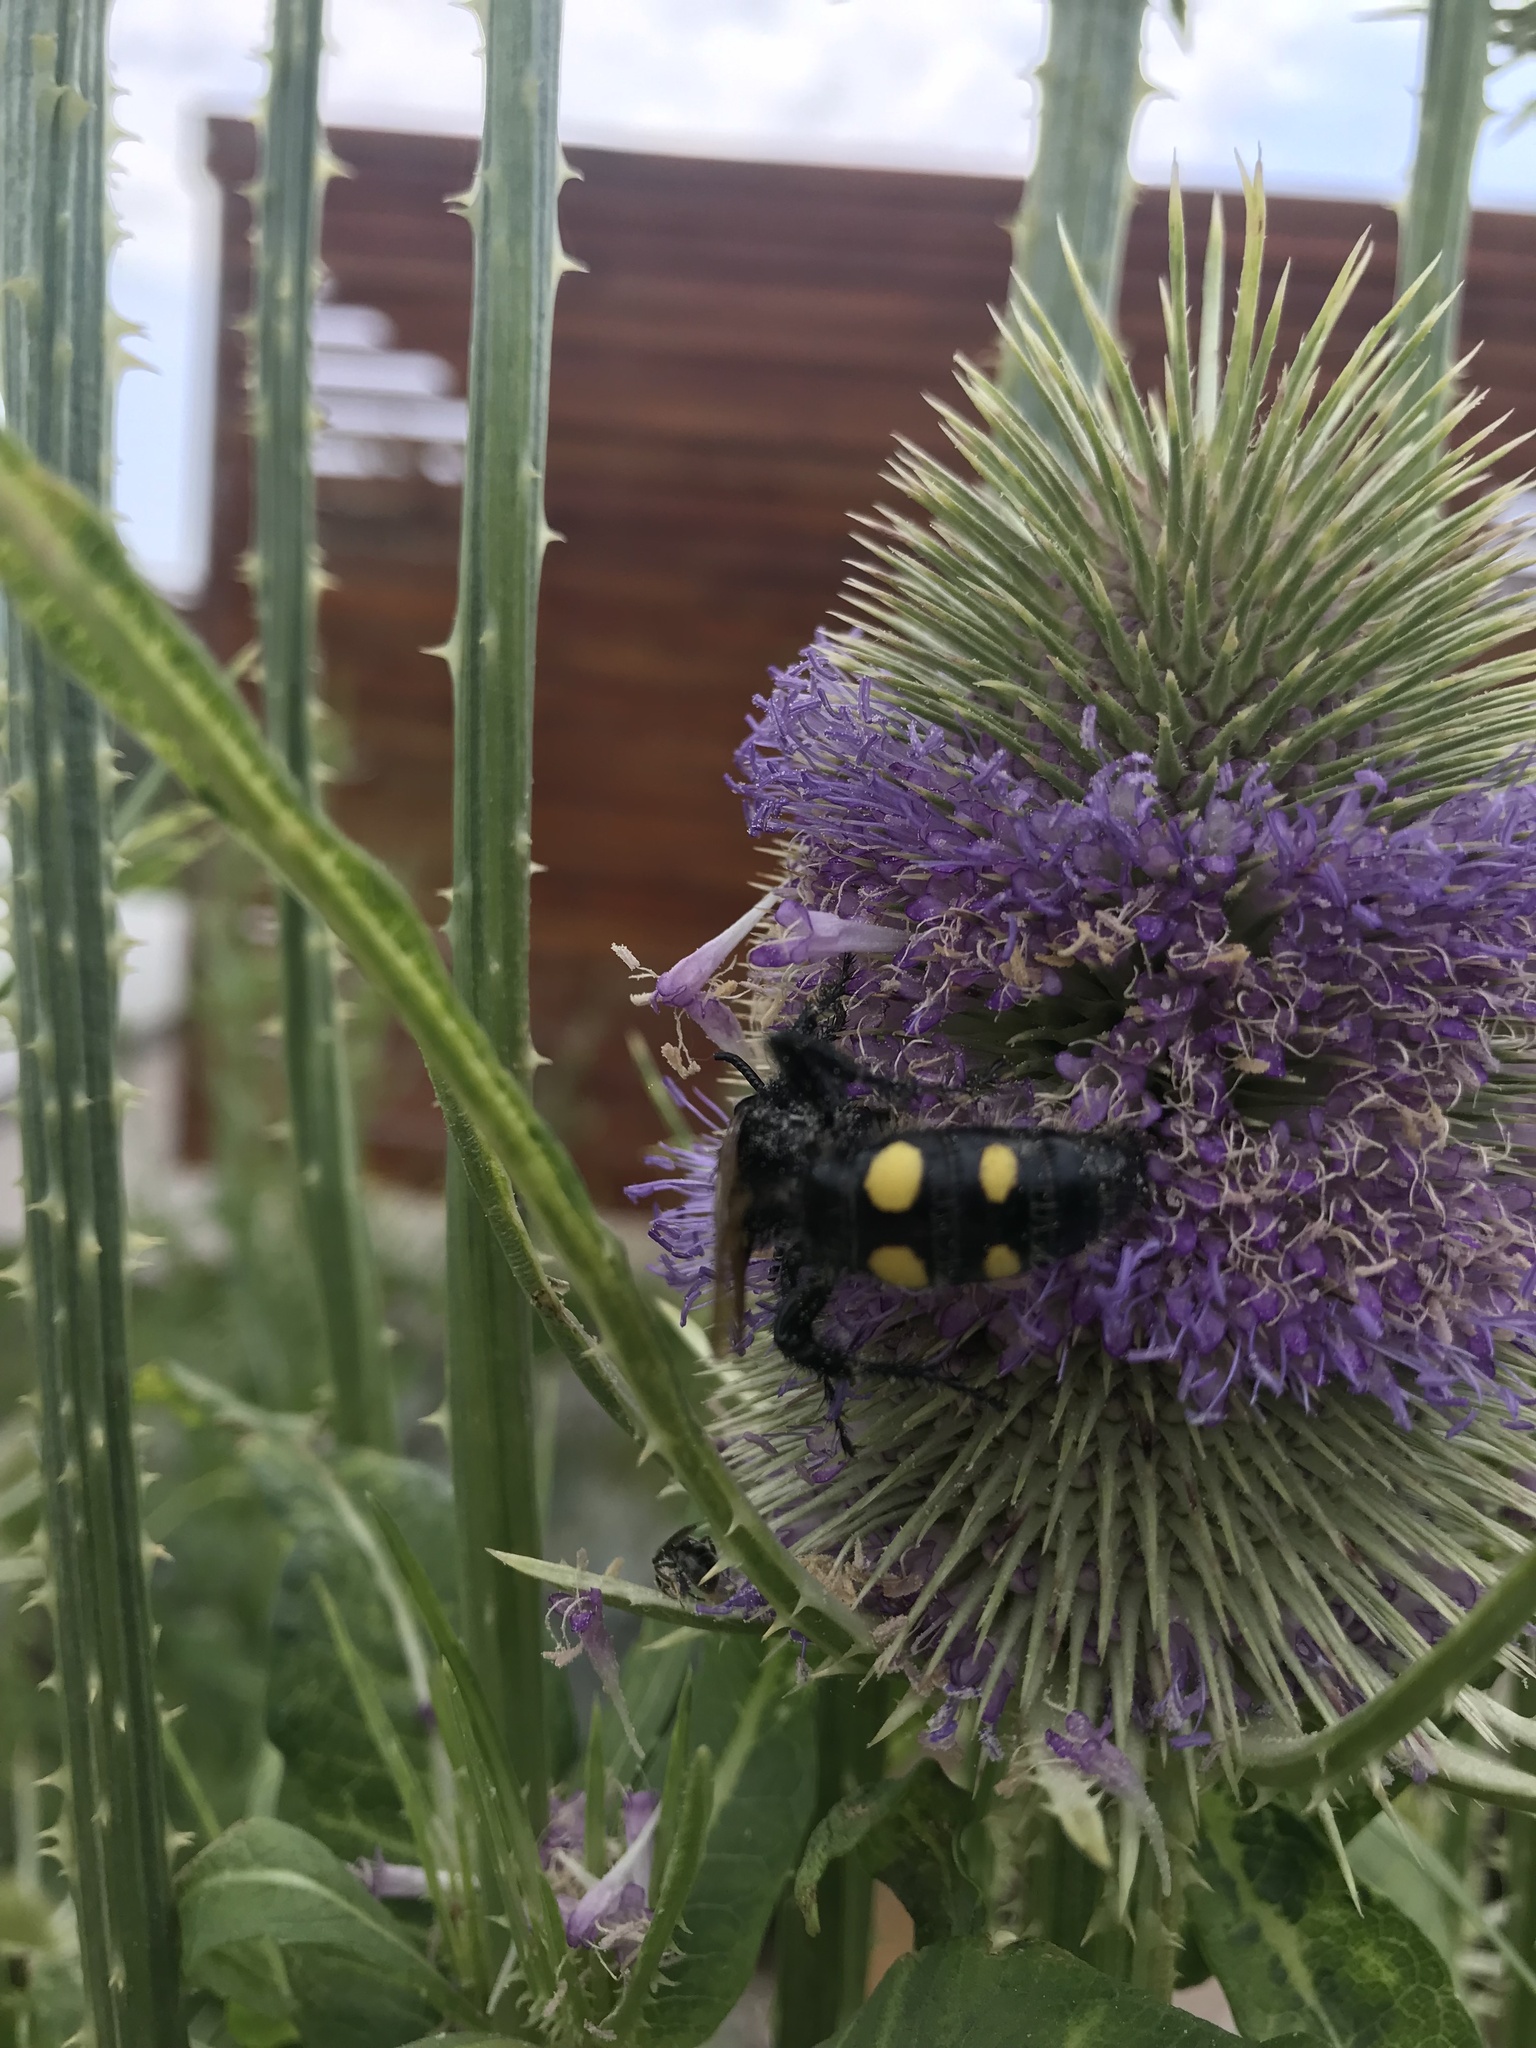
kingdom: Animalia
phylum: Arthropoda
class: Insecta
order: Hymenoptera
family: Scoliidae
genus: Pygodasis
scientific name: Pygodasis
